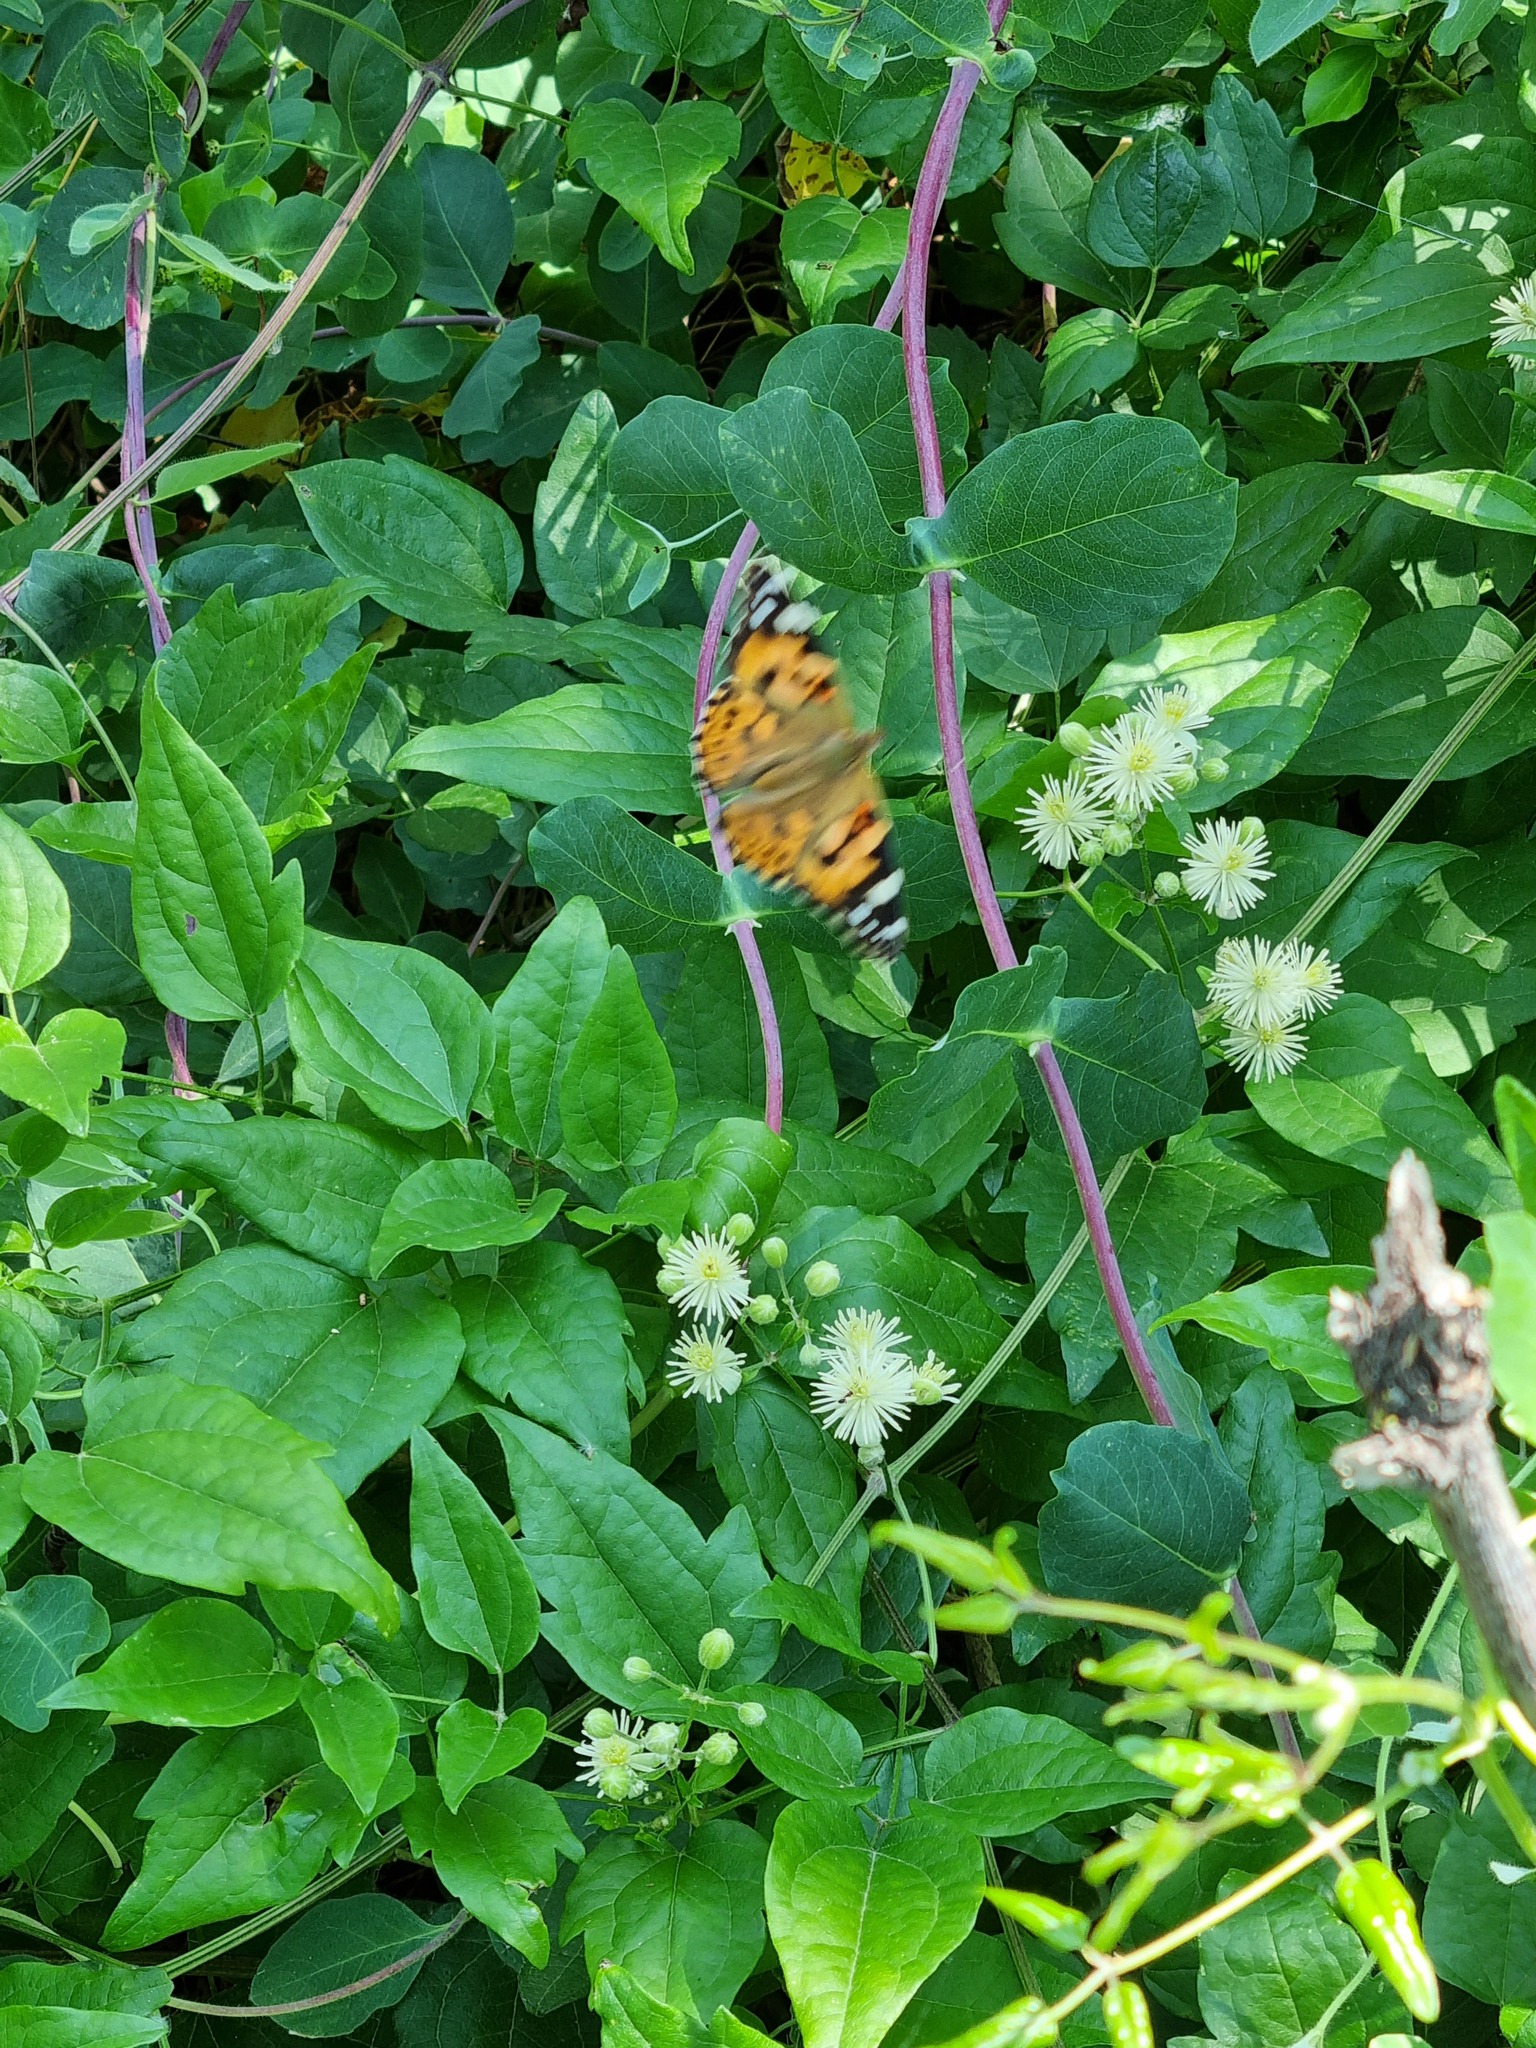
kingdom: Animalia
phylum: Arthropoda
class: Insecta
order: Lepidoptera
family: Nymphalidae
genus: Vanessa
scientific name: Vanessa cardui
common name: Painted lady
